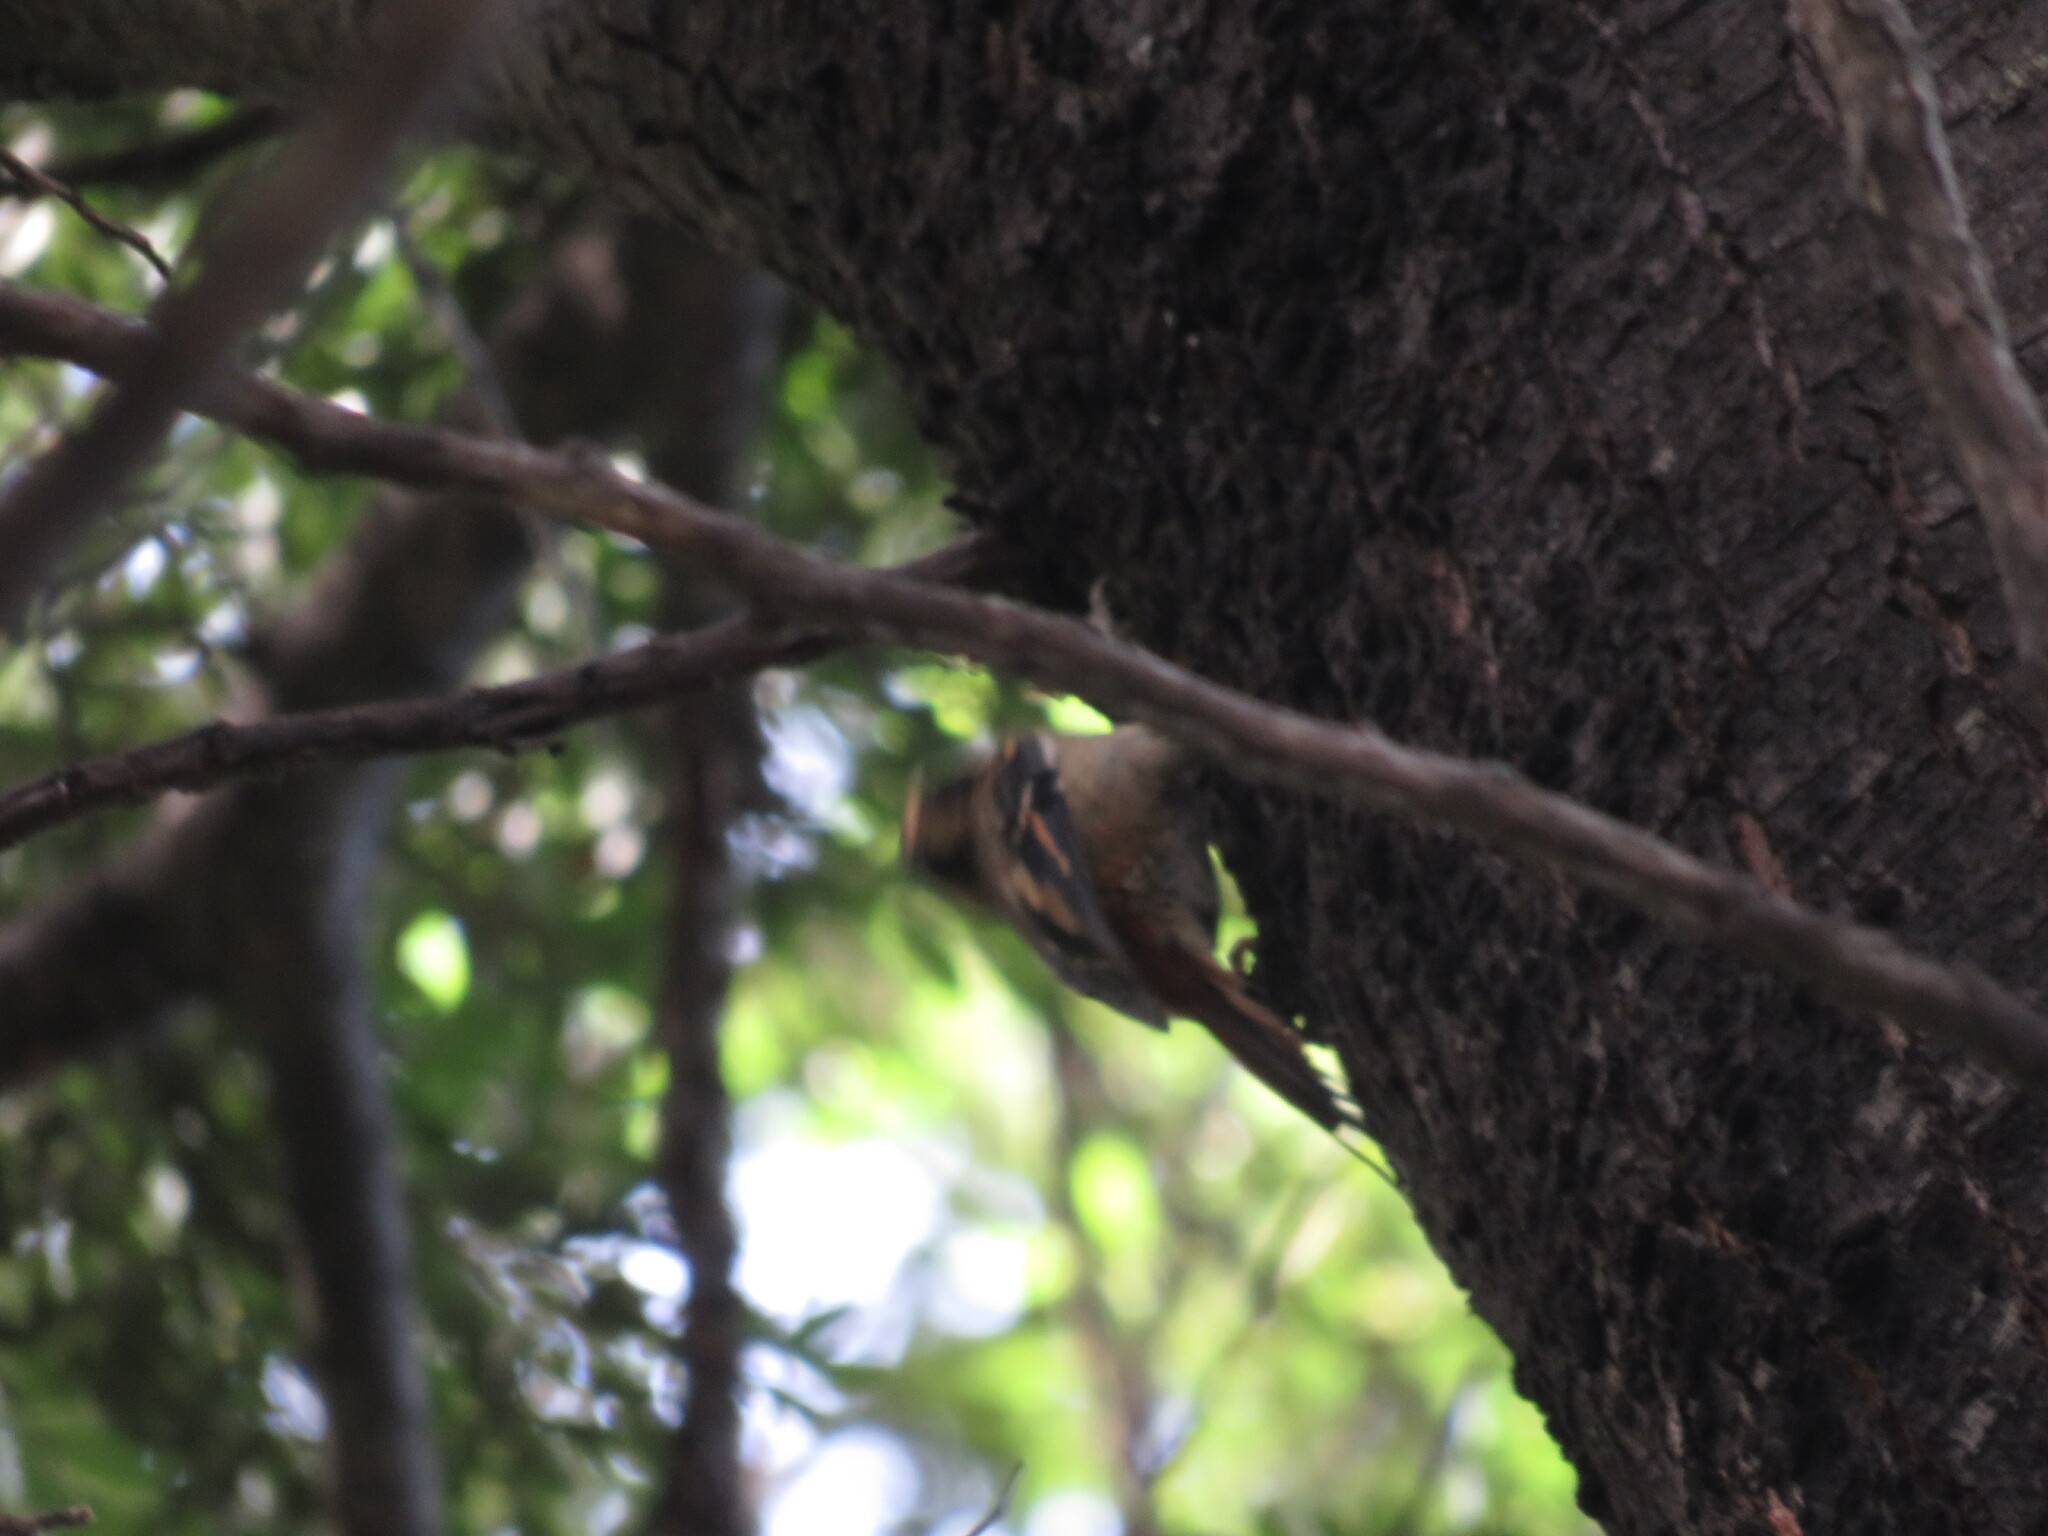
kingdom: Animalia
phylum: Chordata
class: Aves
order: Passeriformes
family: Furnariidae
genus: Aphrastura
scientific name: Aphrastura spinicauda
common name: Thorn-tailed rayadito
